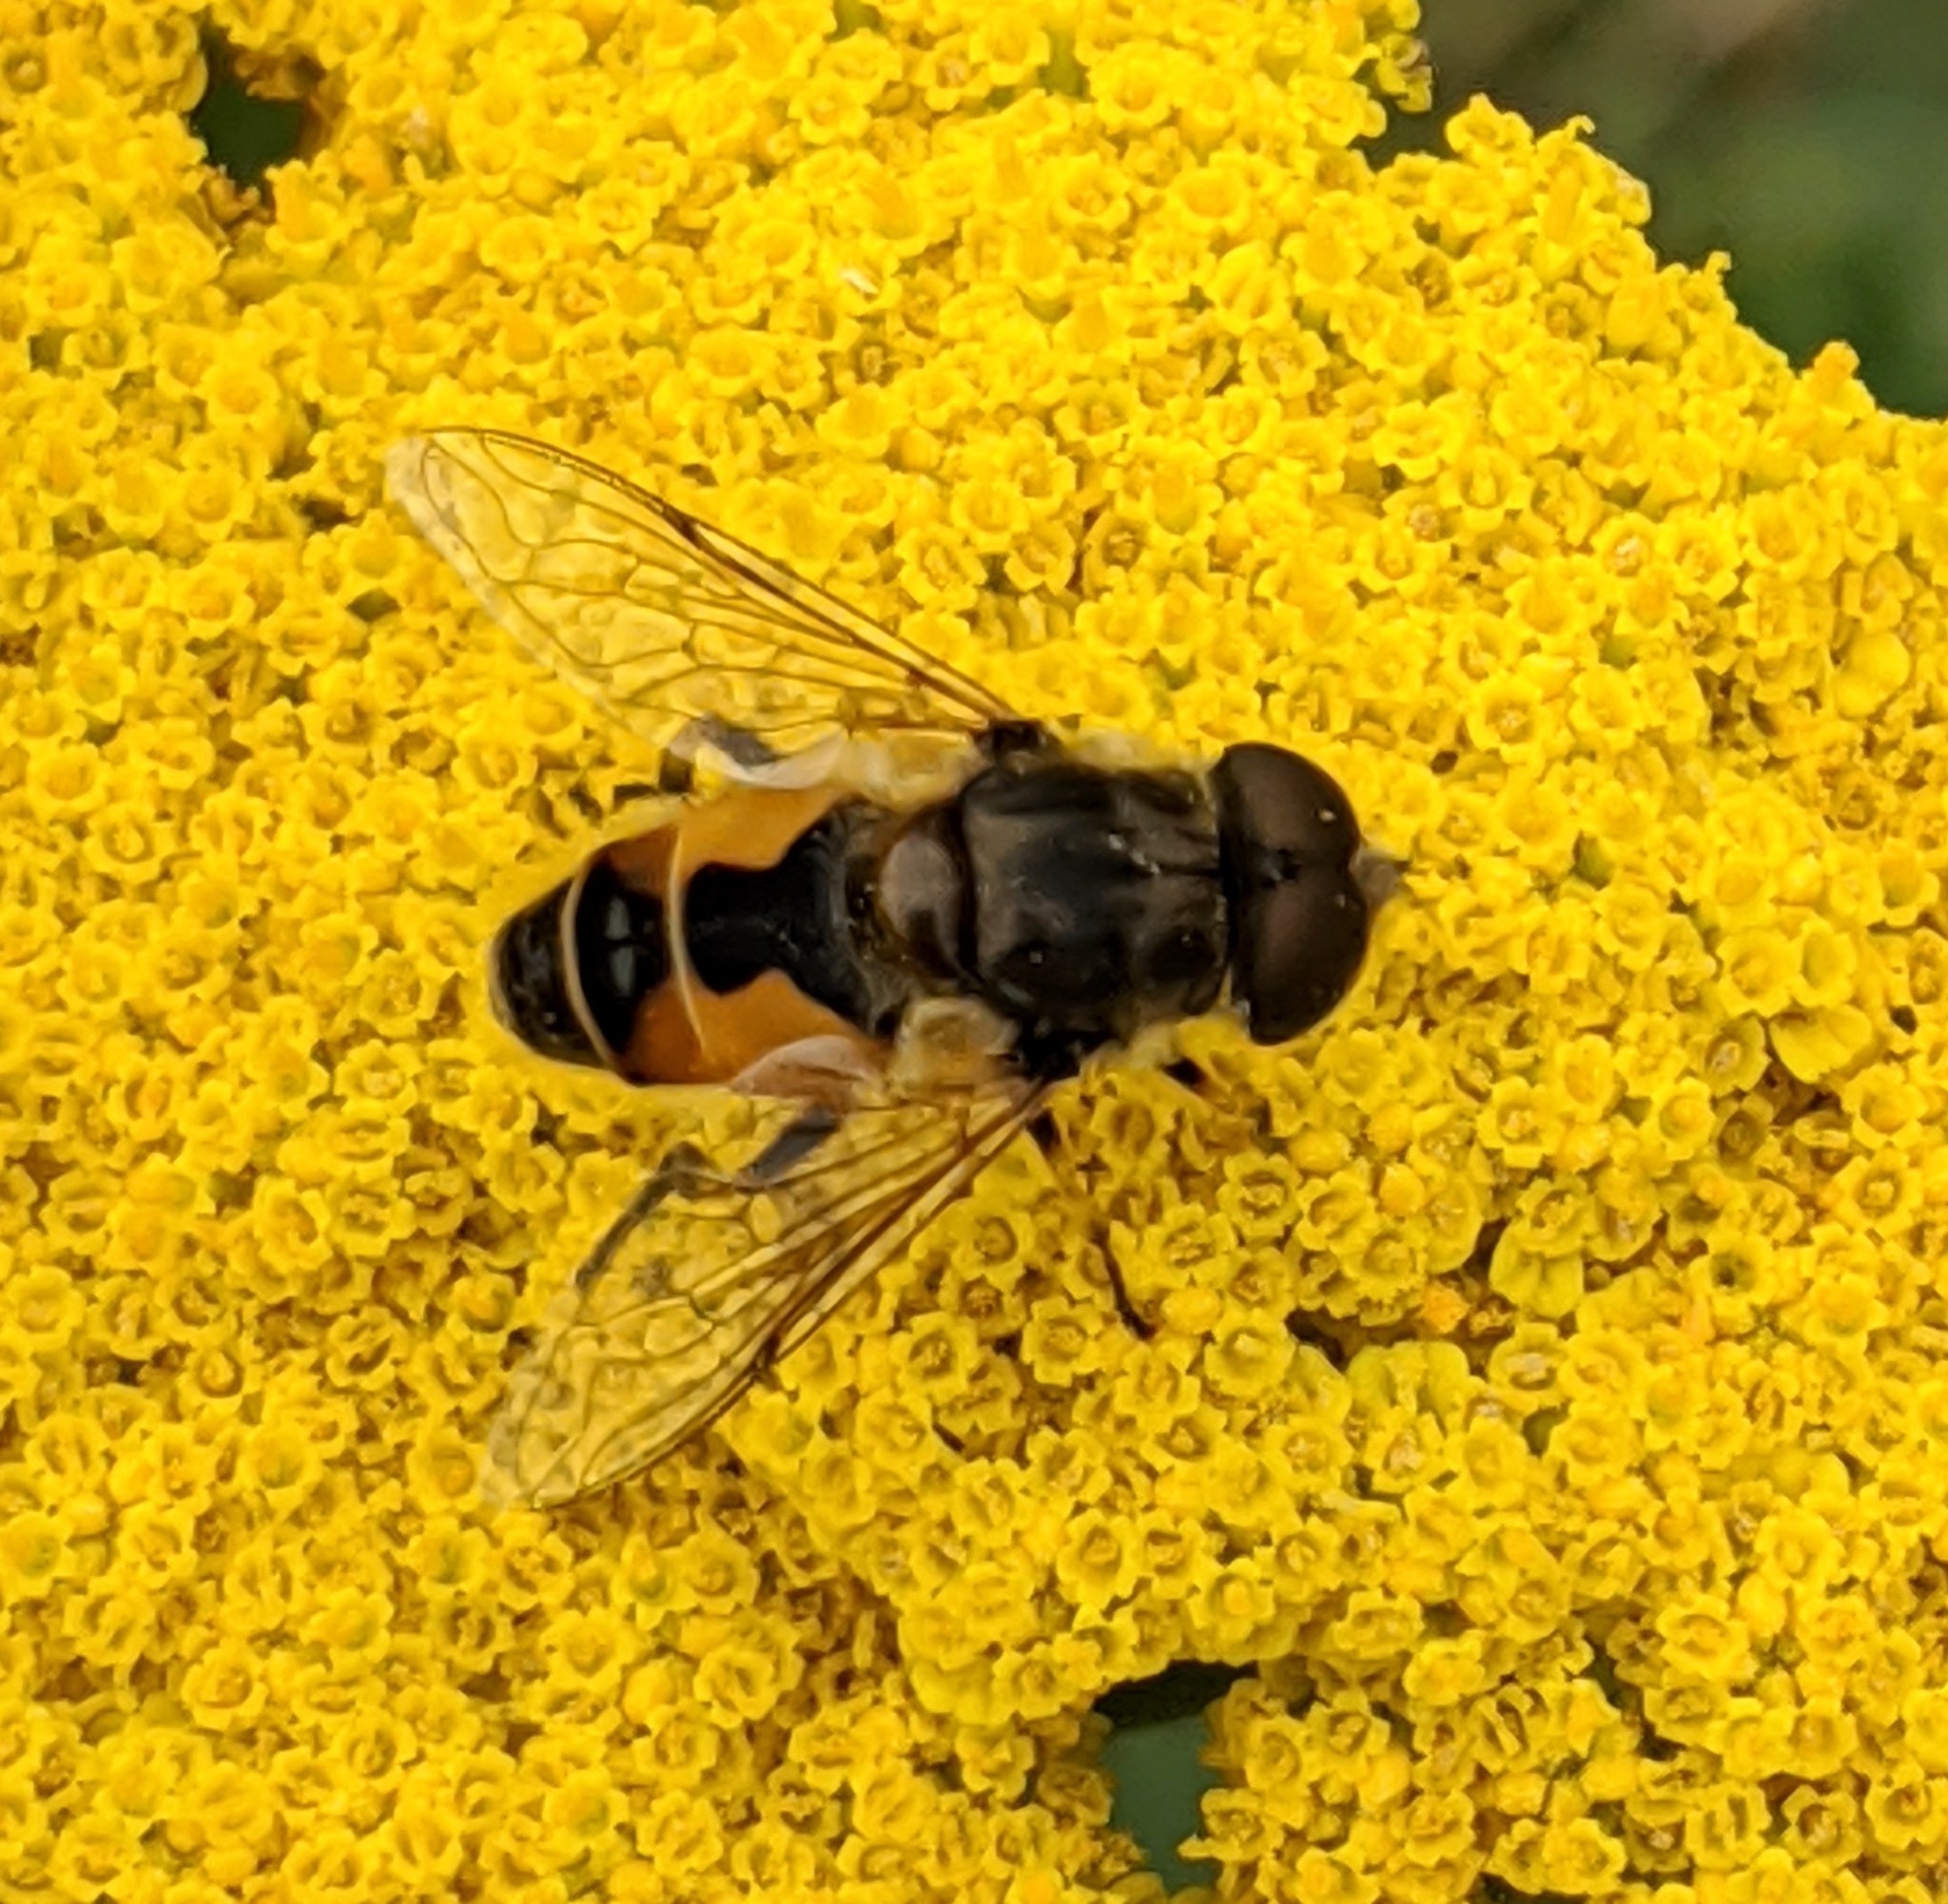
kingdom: Animalia
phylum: Arthropoda
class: Insecta
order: Diptera
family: Syrphidae
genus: Eristalis
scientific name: Eristalis arbustorum
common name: Hover fly
